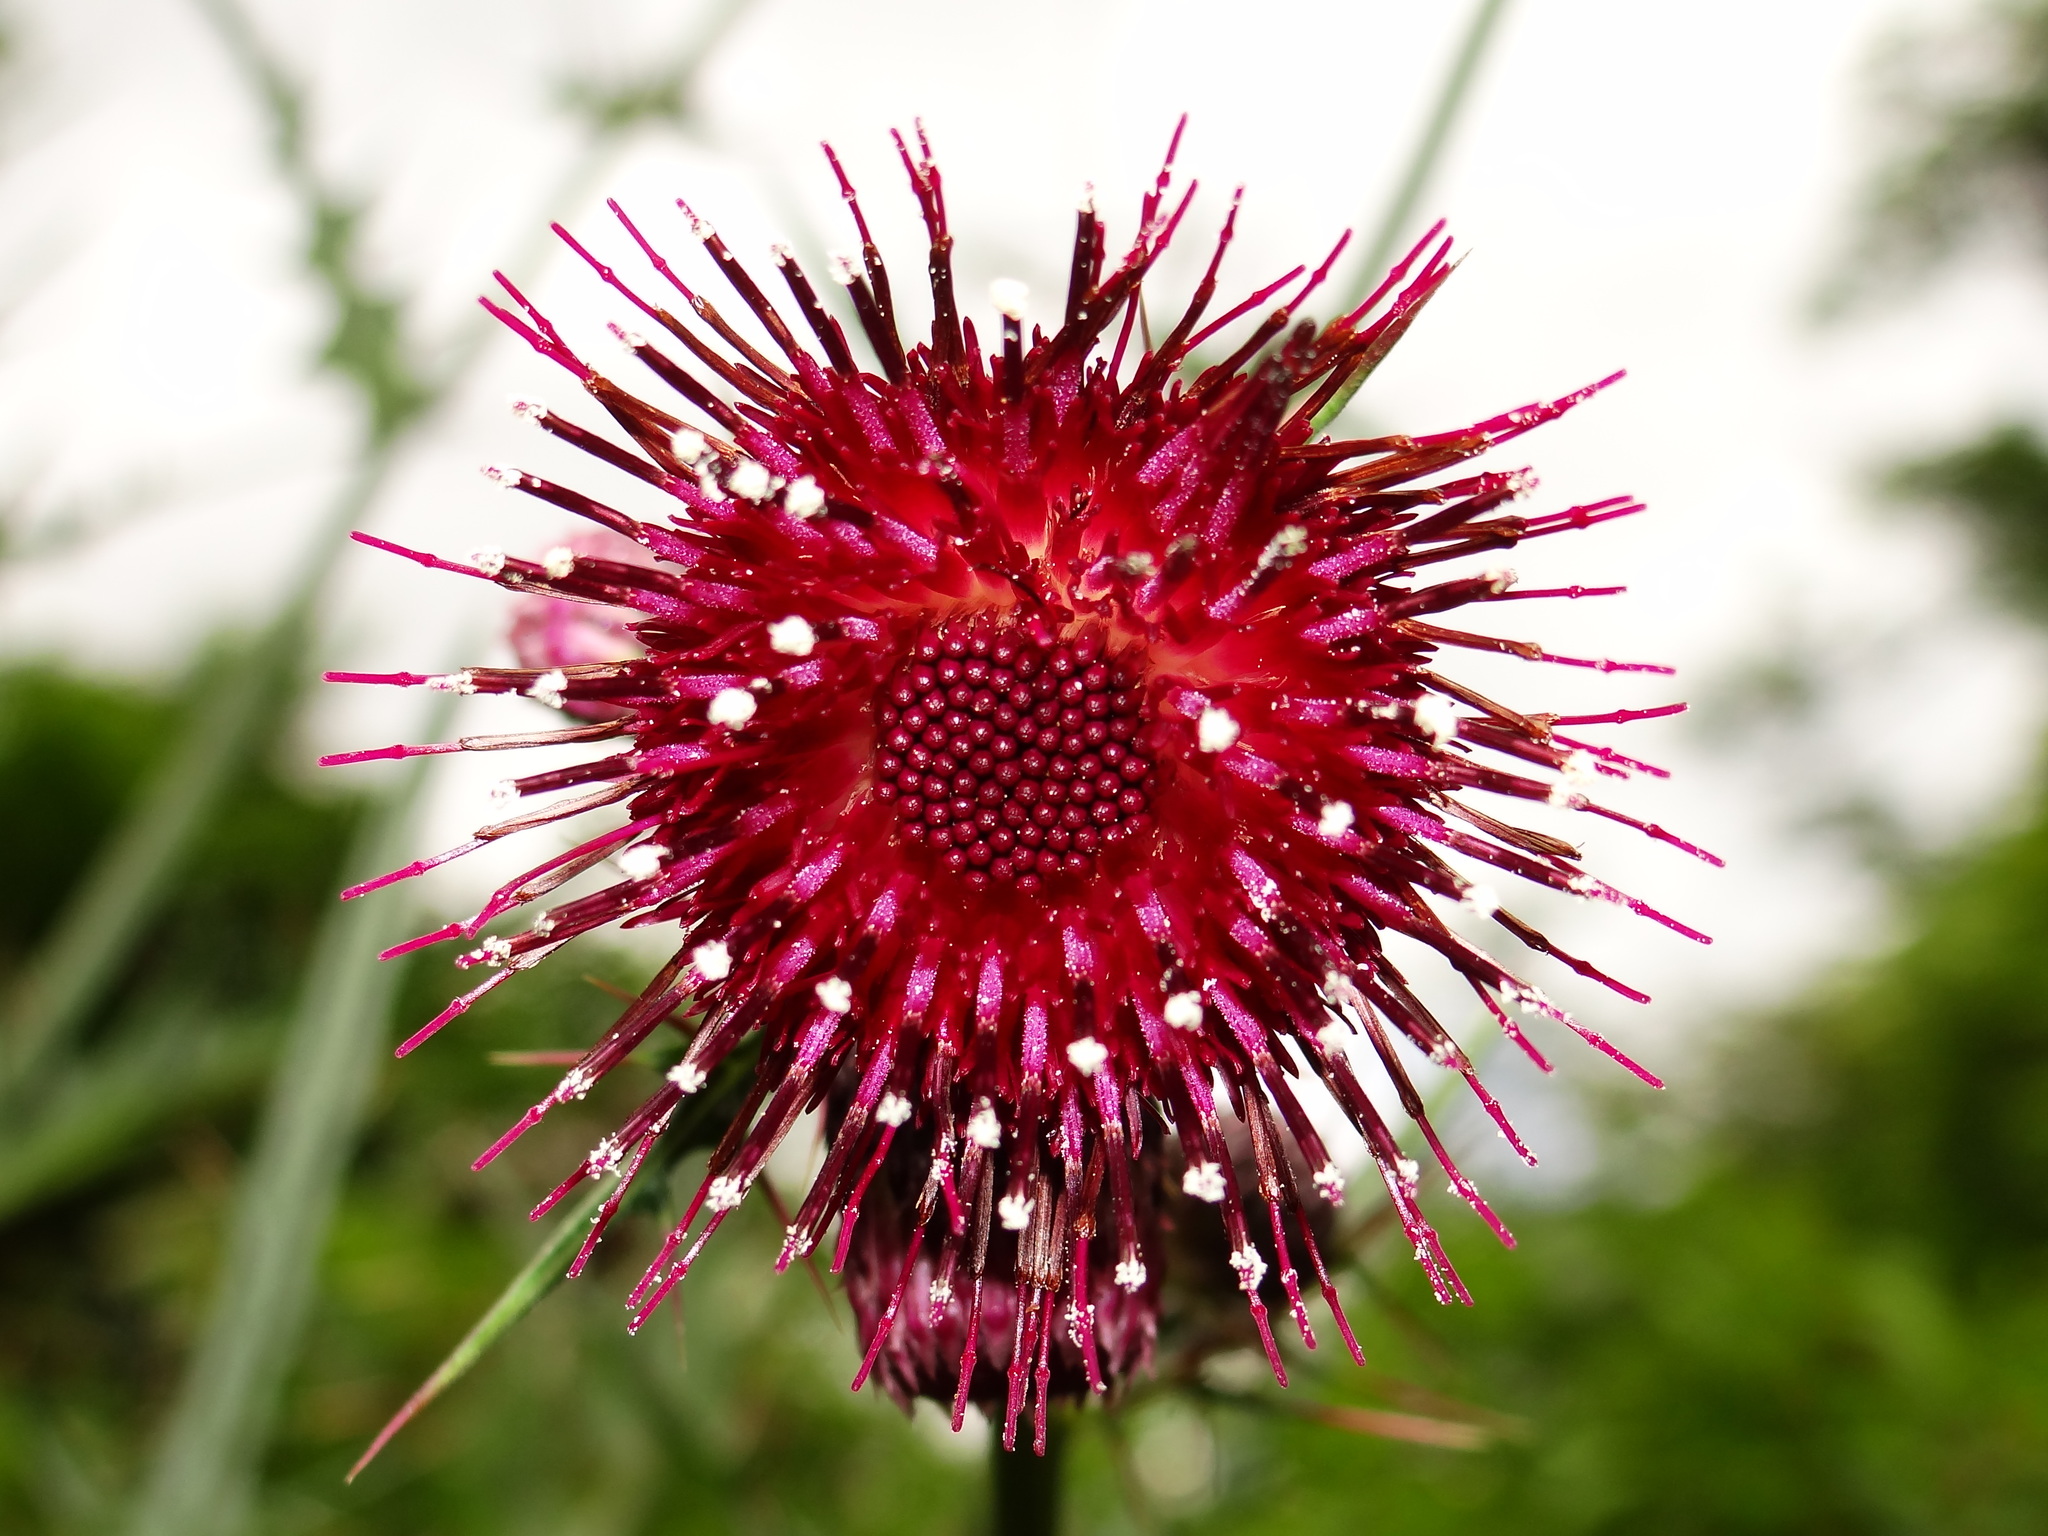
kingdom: Plantae
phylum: Tracheophyta
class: Magnoliopsida
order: Asterales
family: Asteraceae
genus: Cirsium
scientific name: Cirsium suzukii
